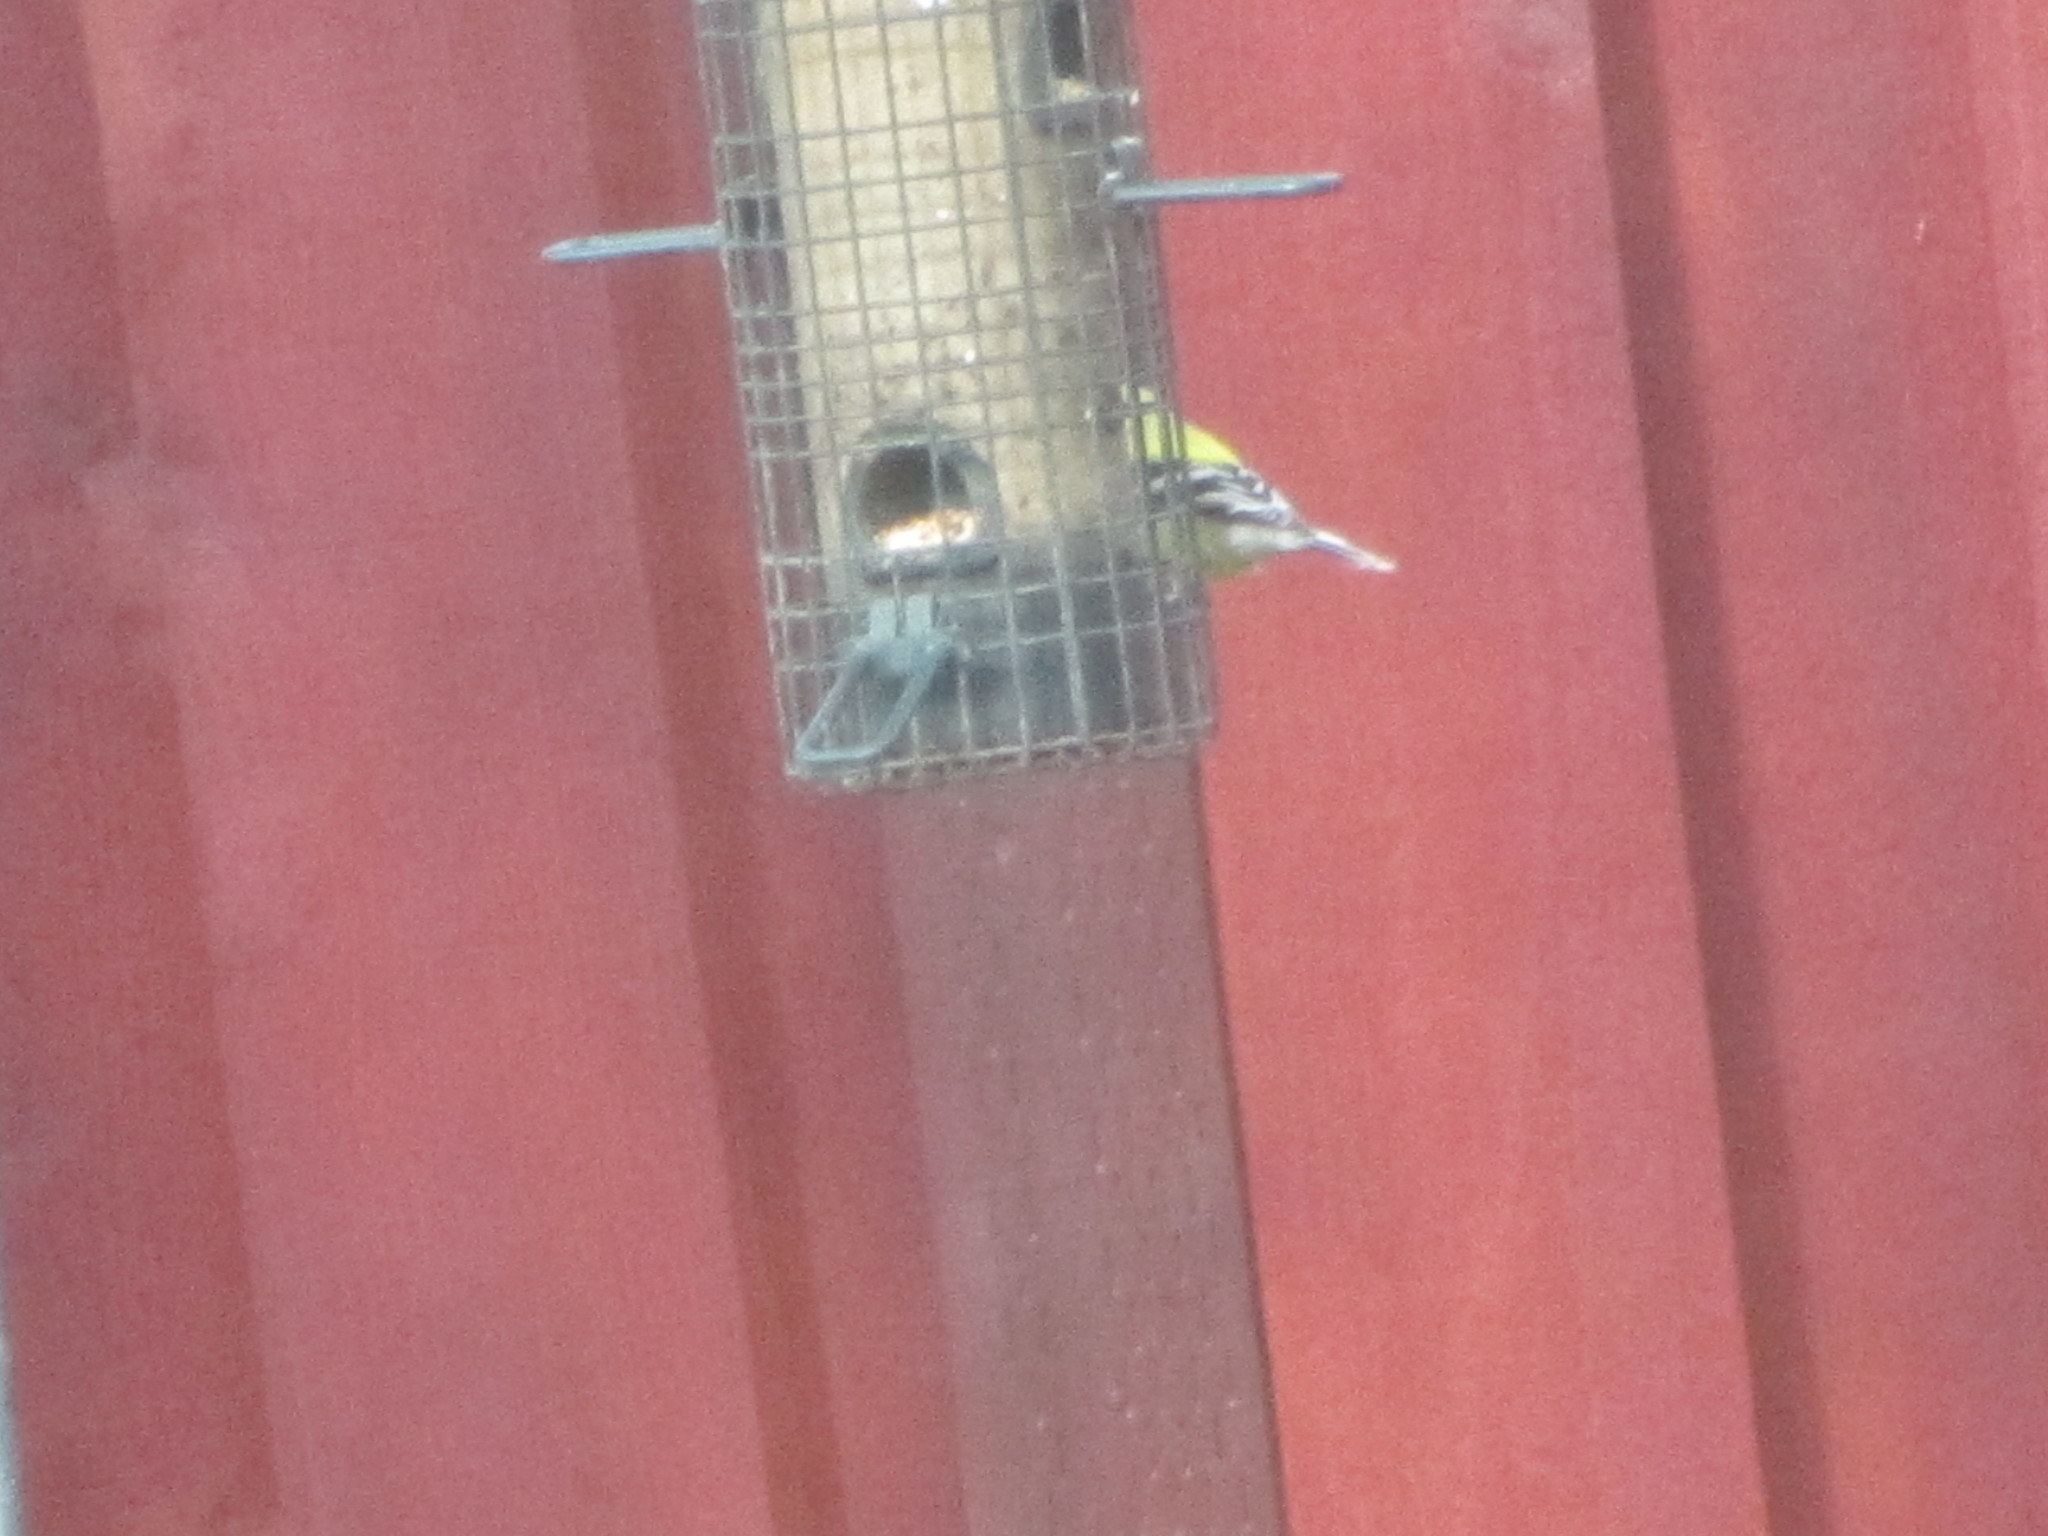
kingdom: Animalia
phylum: Chordata
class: Aves
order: Passeriformes
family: Fringillidae
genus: Spinus
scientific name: Spinus tristis
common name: American goldfinch
